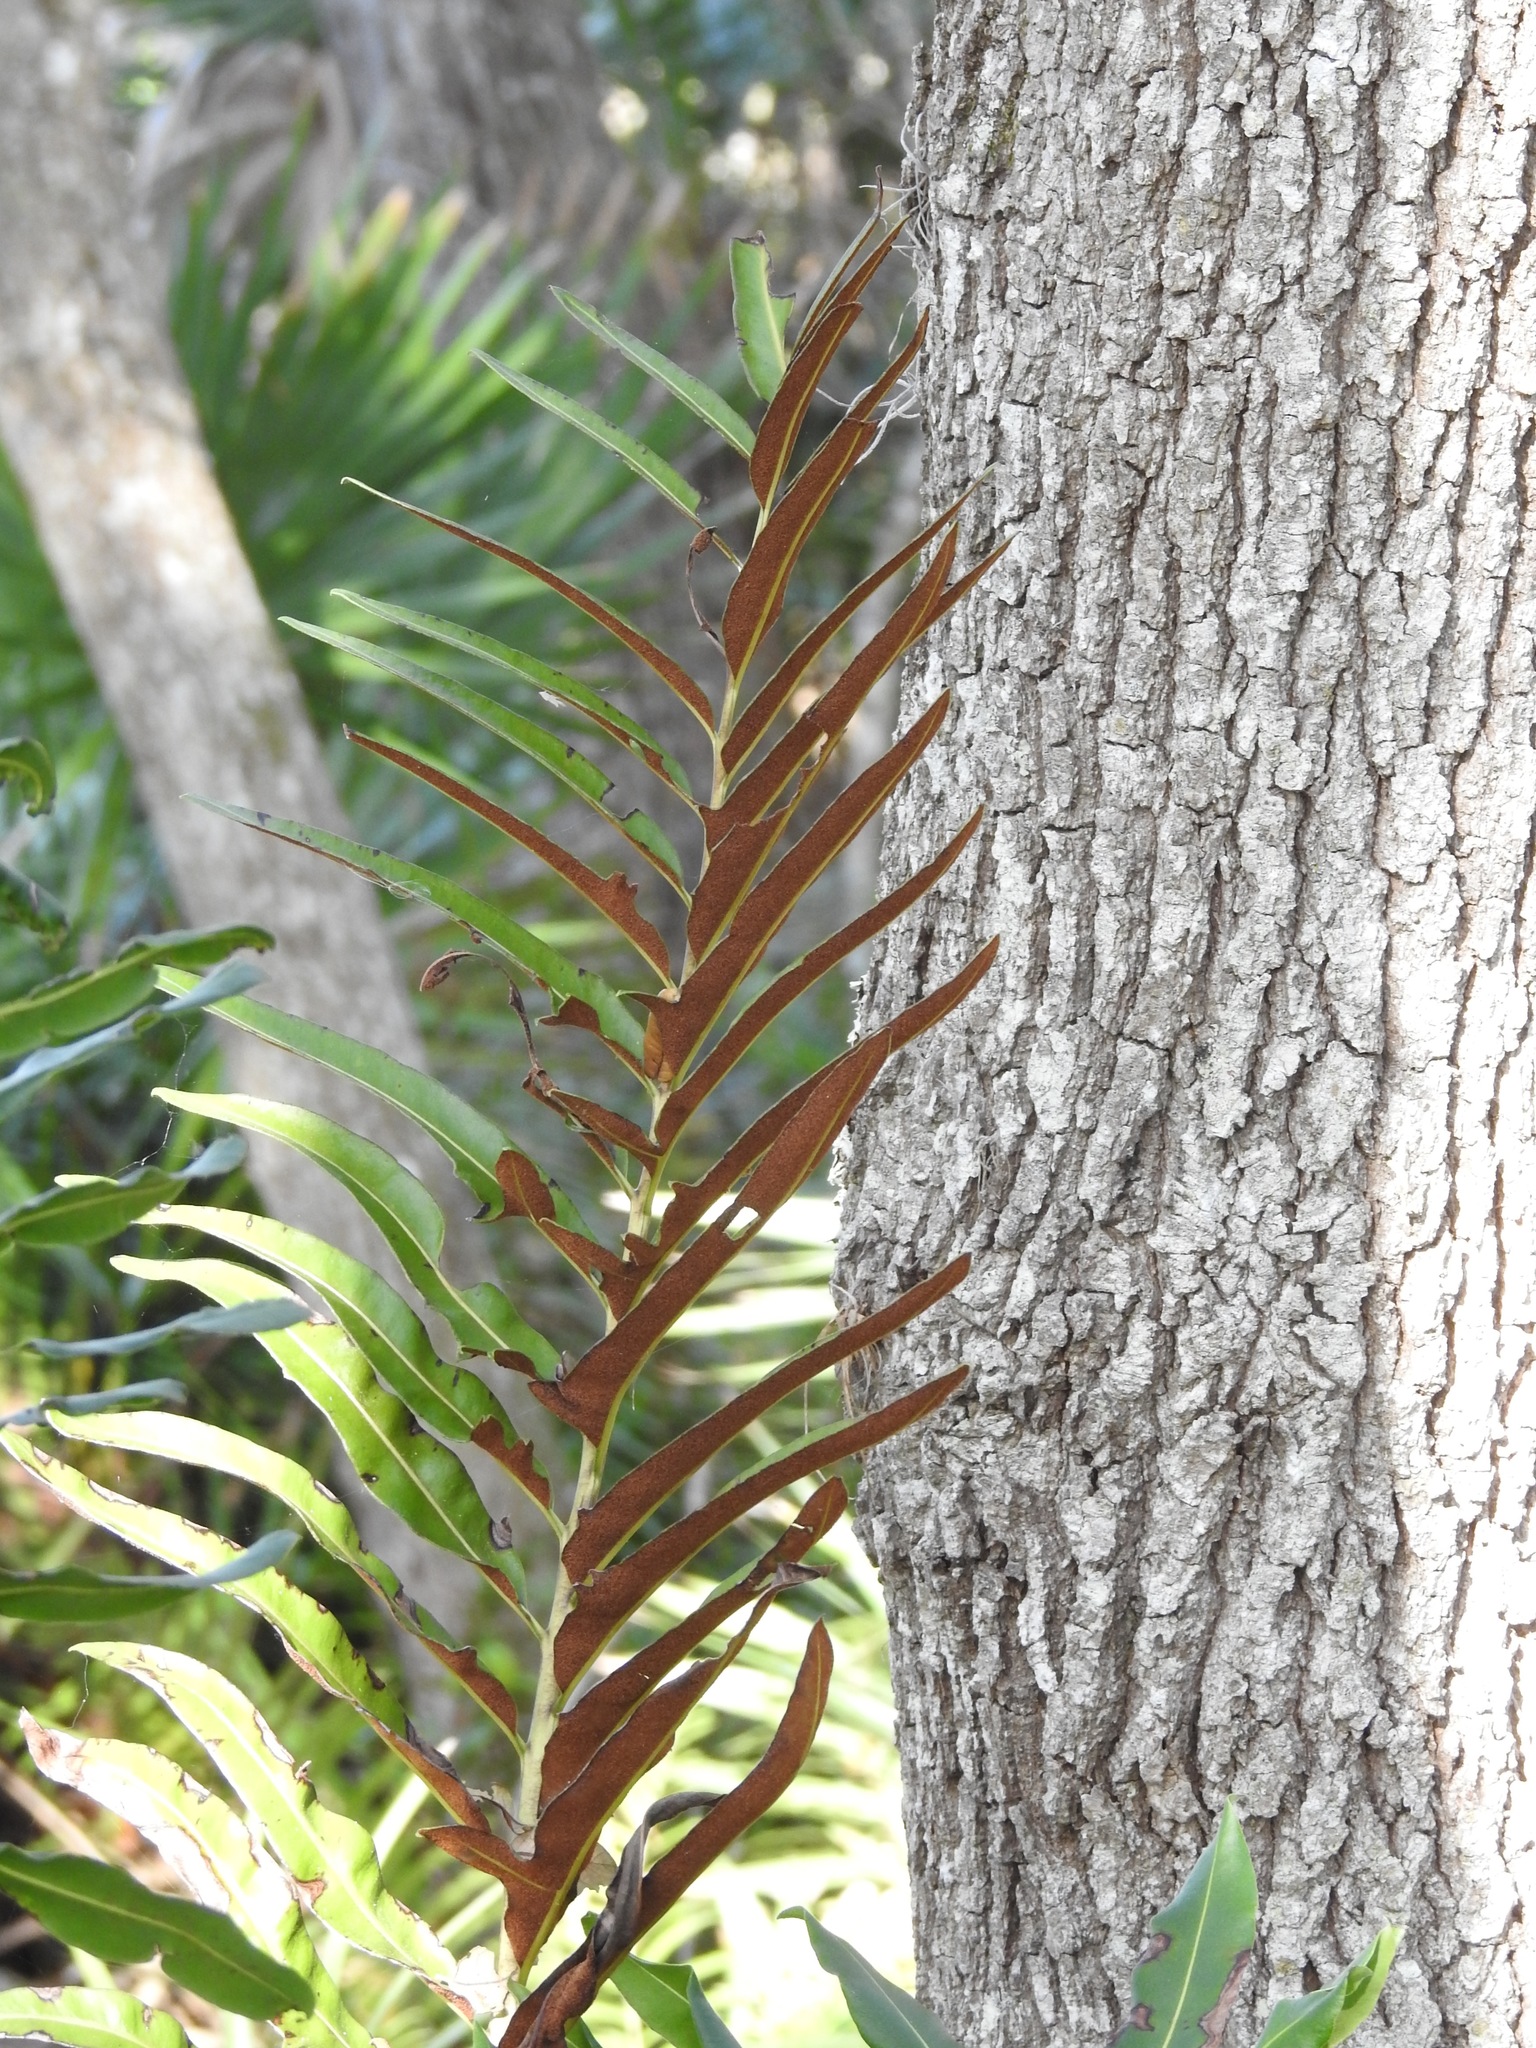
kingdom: Plantae
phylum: Tracheophyta
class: Polypodiopsida
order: Polypodiales
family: Pteridaceae
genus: Acrostichum
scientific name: Acrostichum danaeifolium
